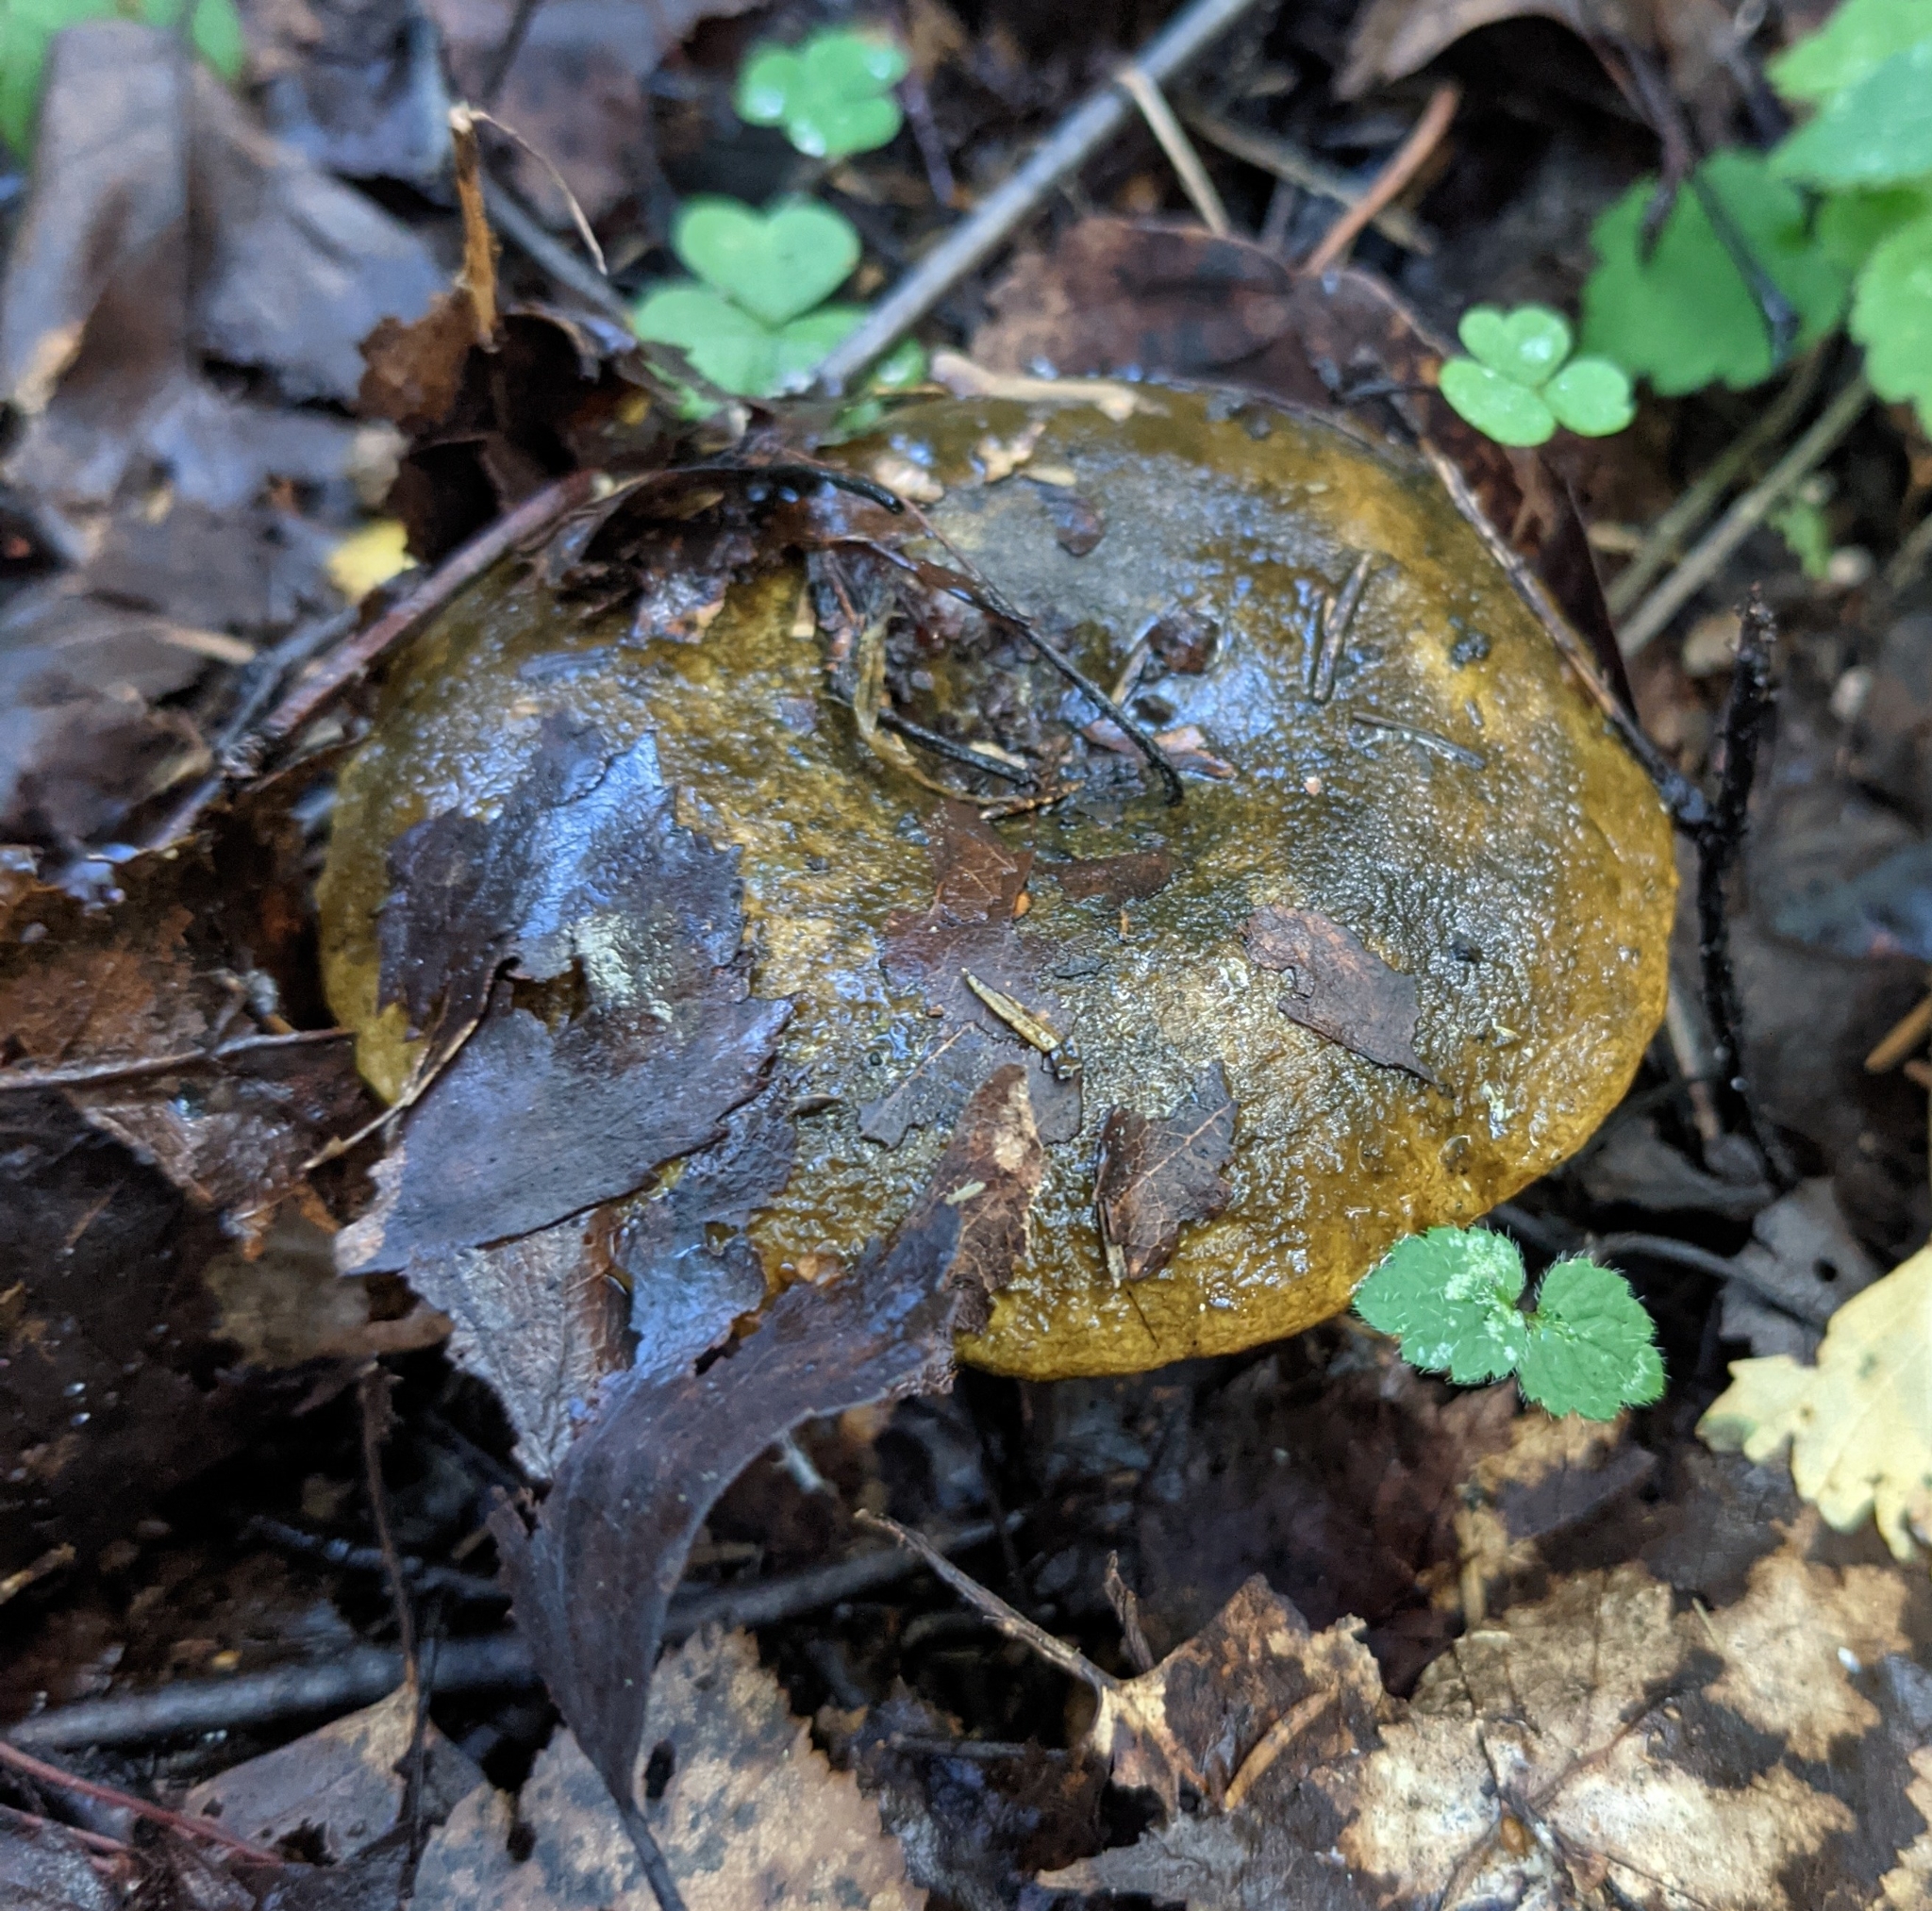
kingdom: Fungi
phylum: Basidiomycota
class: Agaricomycetes
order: Russulales
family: Russulaceae
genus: Lactarius
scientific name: Lactarius turpis
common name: Ugly milk-cap
